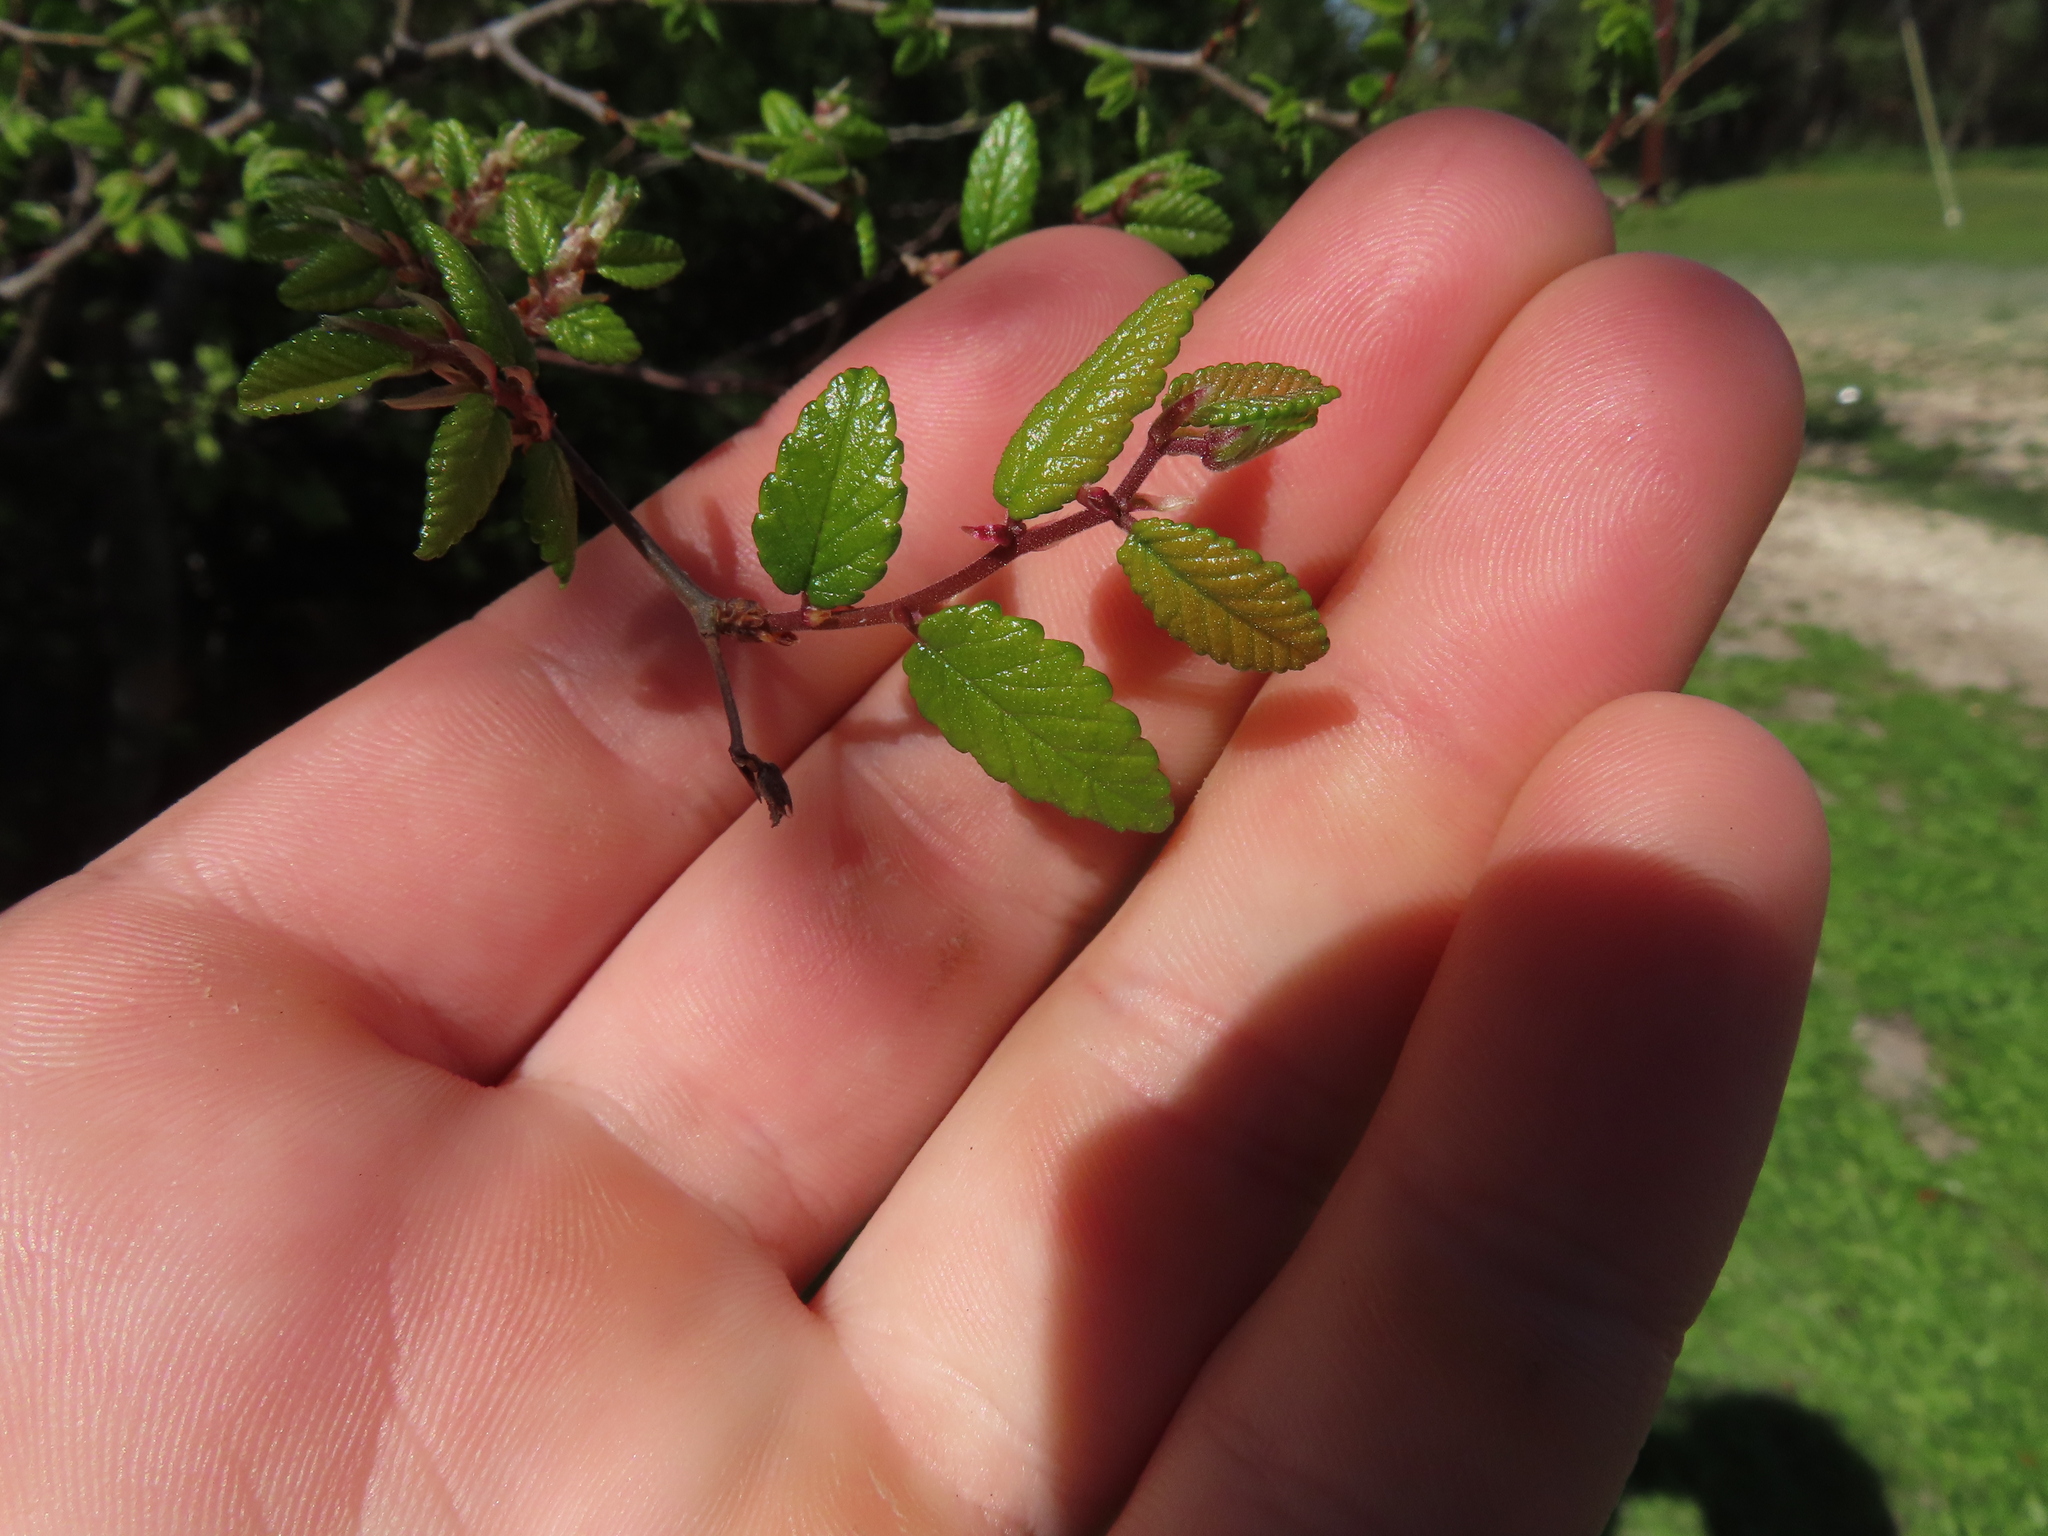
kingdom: Plantae
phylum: Tracheophyta
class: Magnoliopsida
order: Rosales
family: Ulmaceae
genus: Ulmus
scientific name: Ulmus crassifolia
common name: Basket elm
